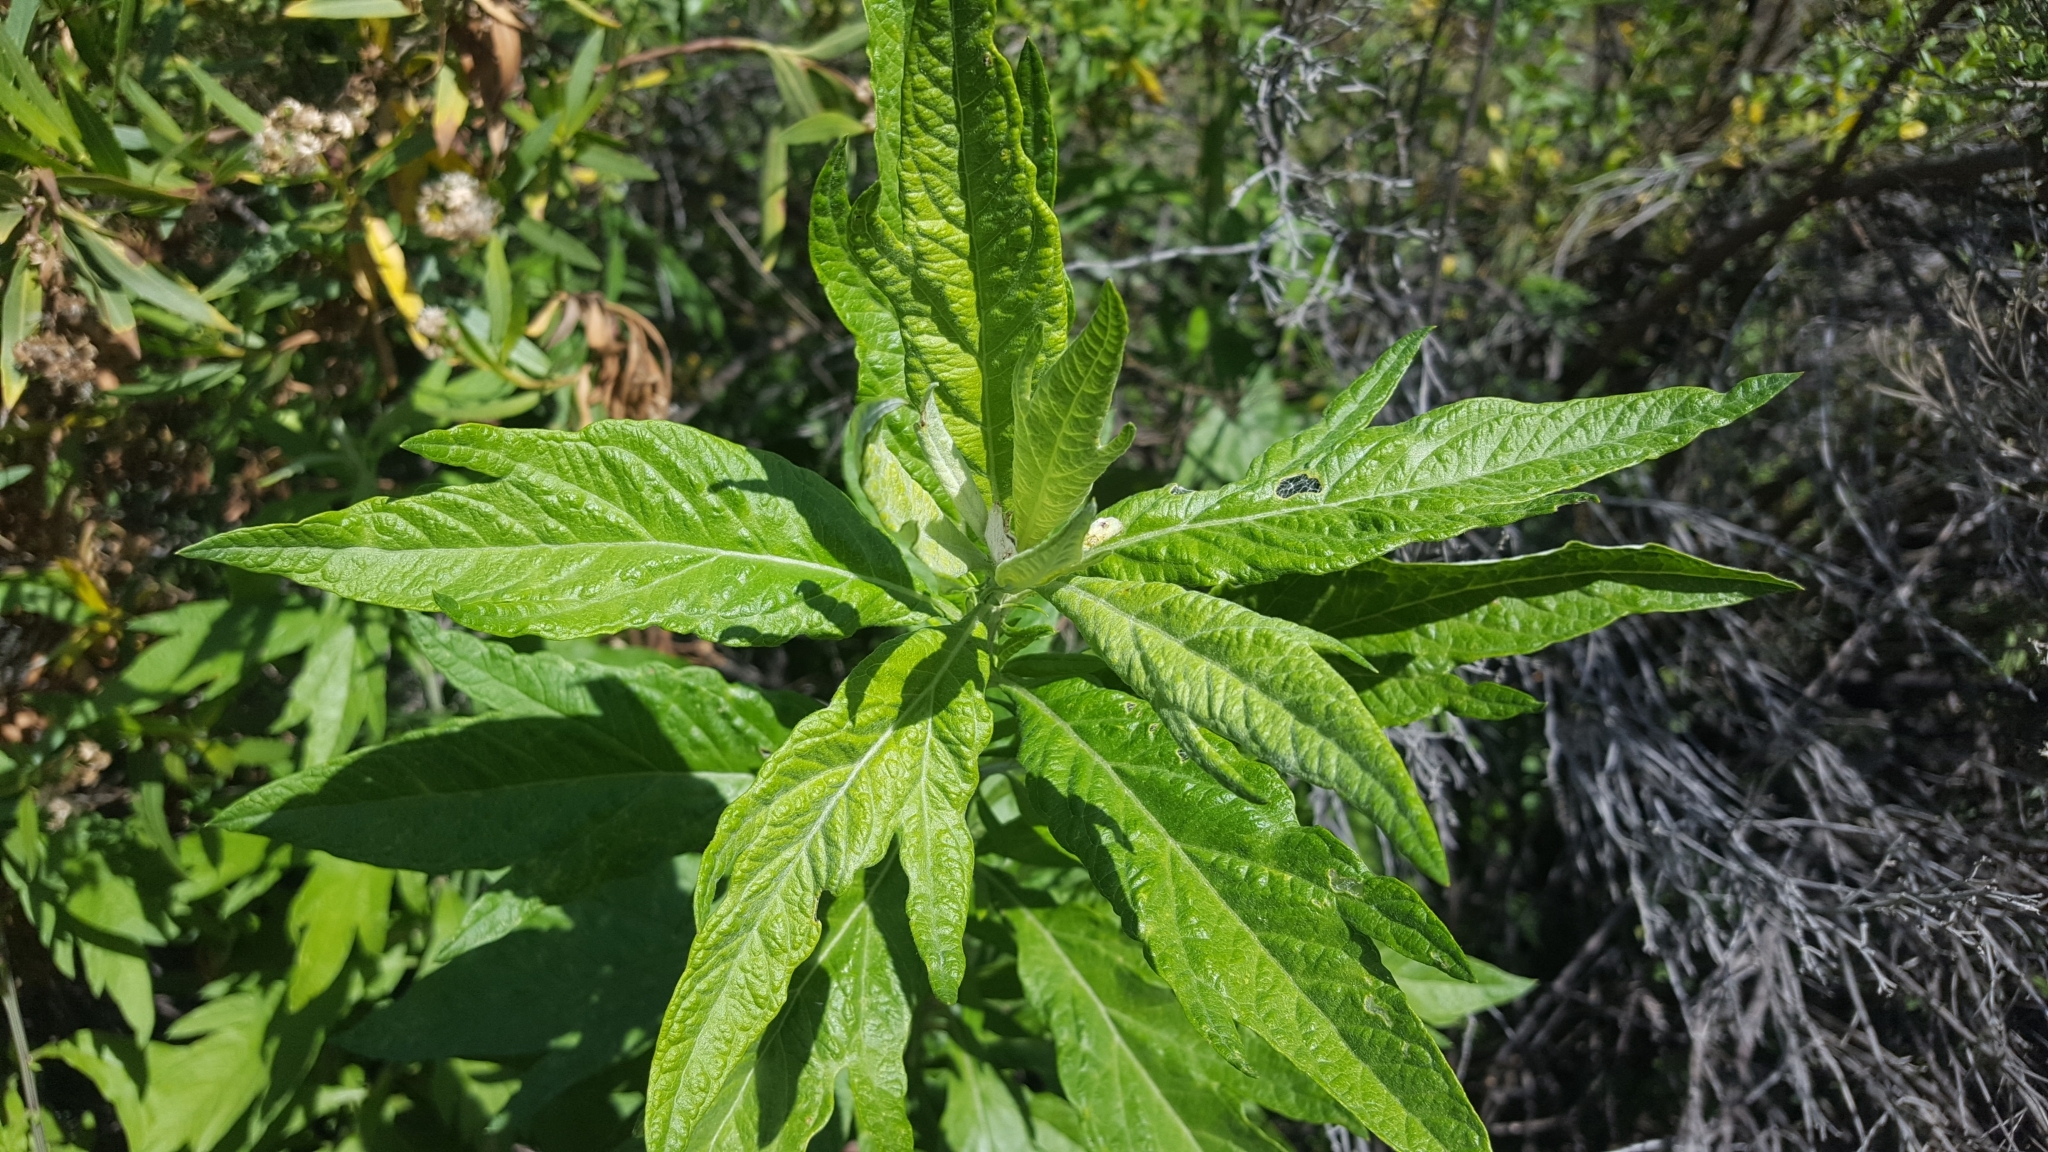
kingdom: Plantae
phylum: Tracheophyta
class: Magnoliopsida
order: Asterales
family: Asteraceae
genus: Artemisia
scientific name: Artemisia douglasiana
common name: Northwest mugwort
